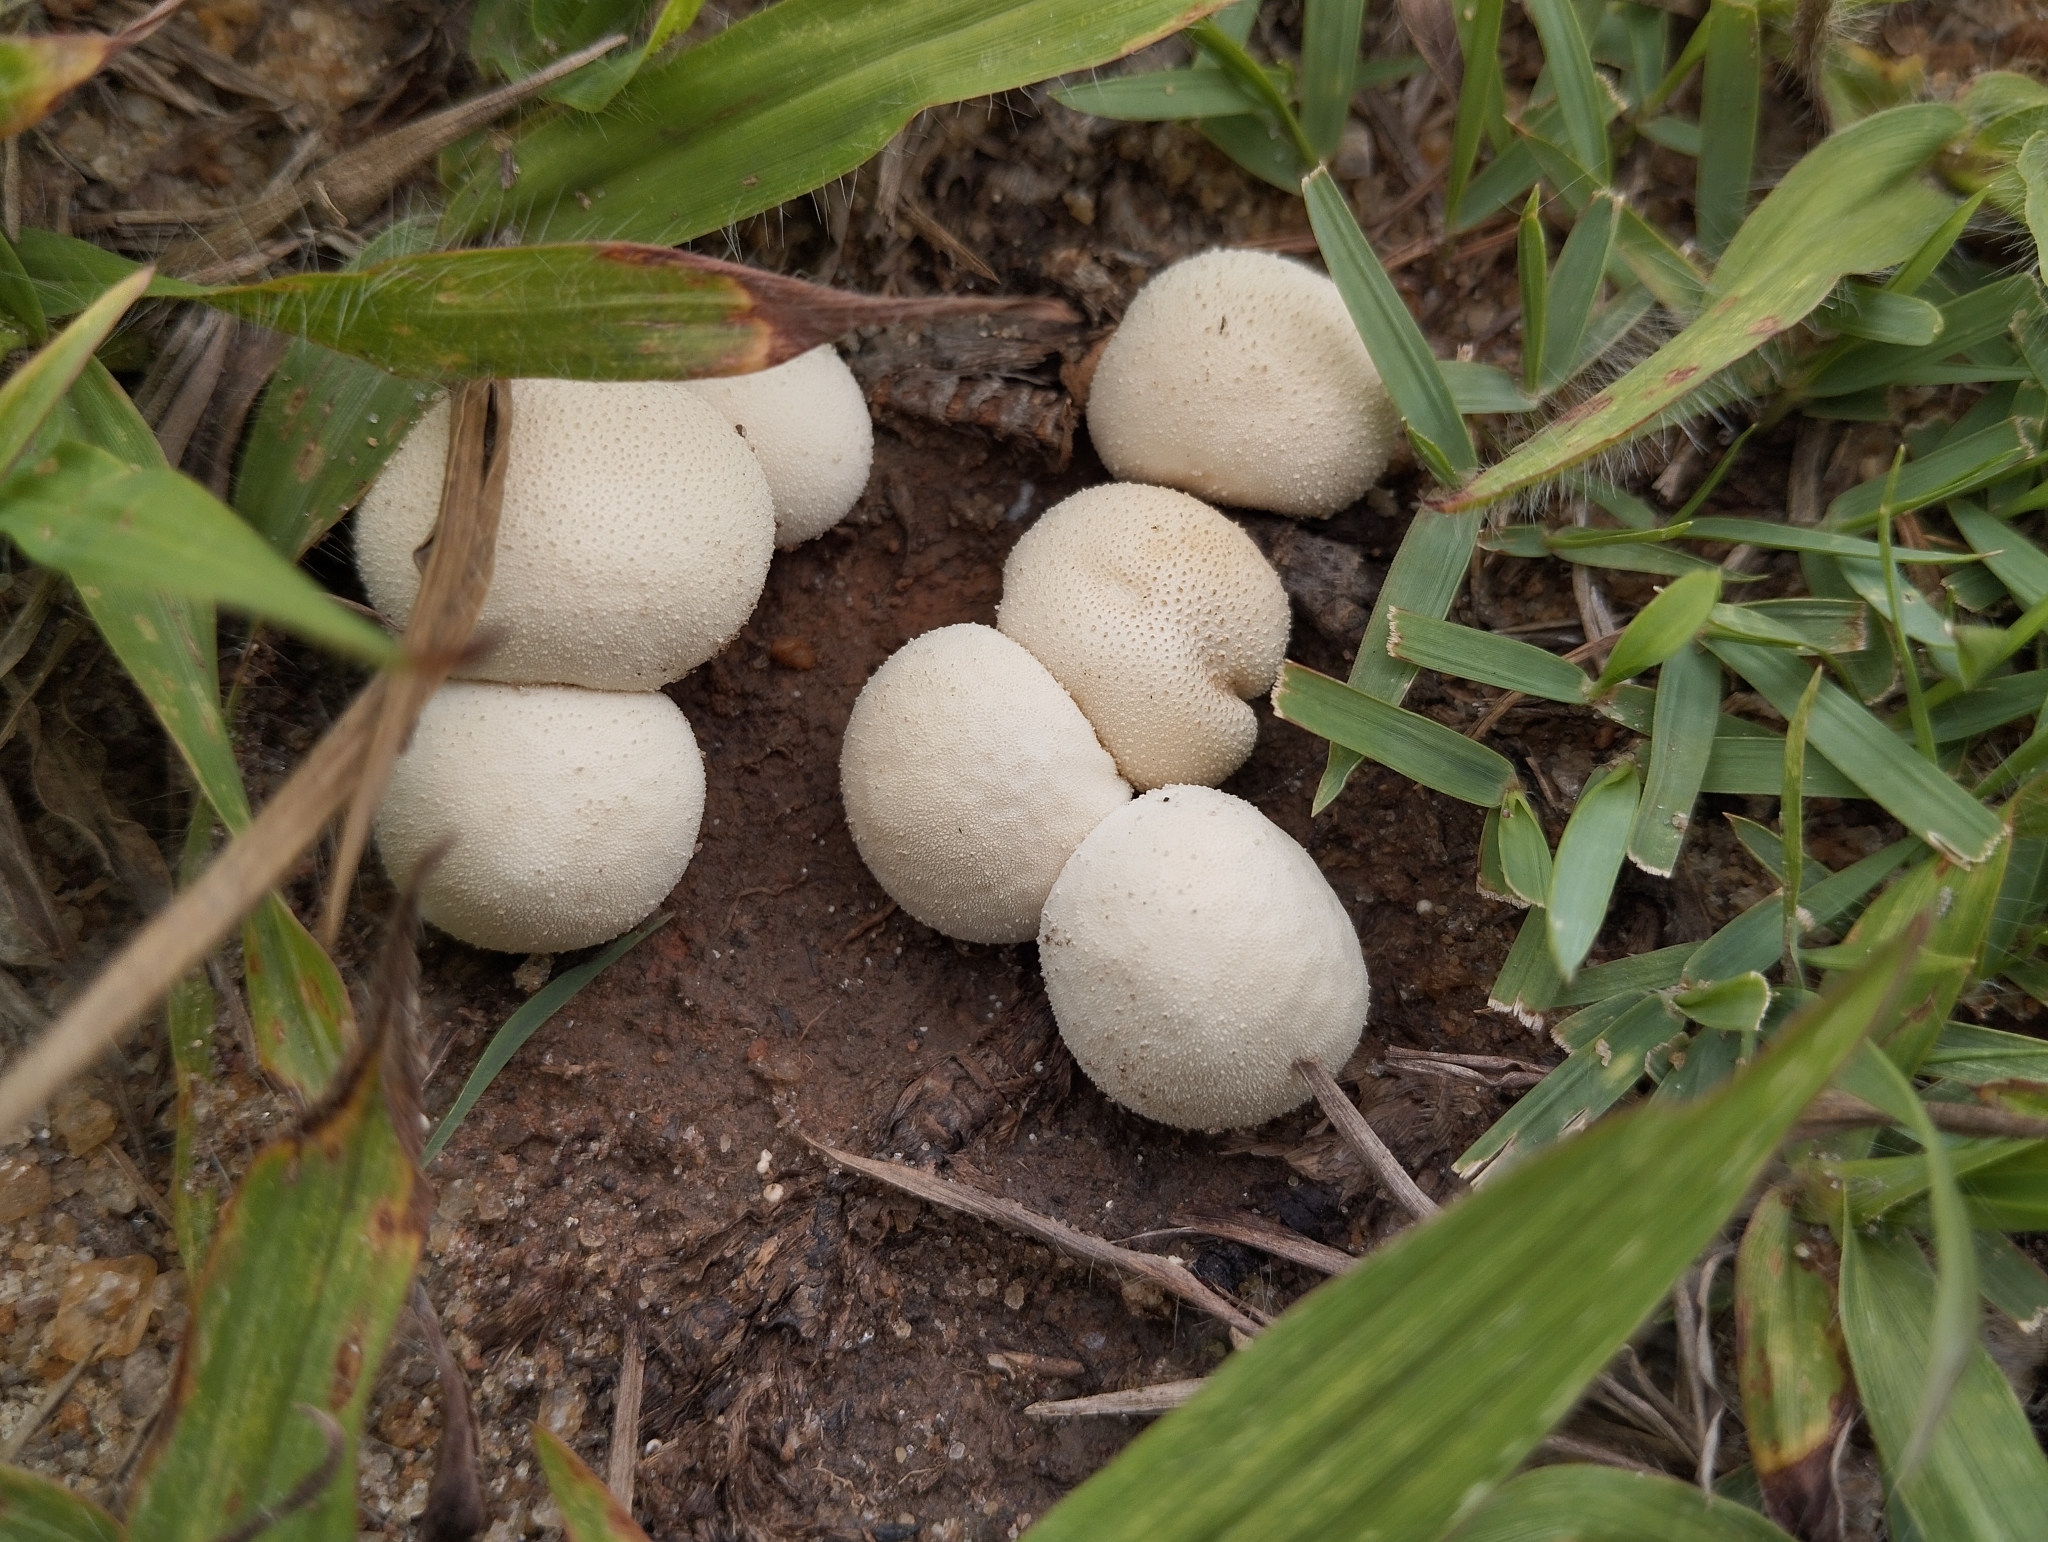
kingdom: Fungi
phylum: Basidiomycota
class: Agaricomycetes
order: Agaricales
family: Lycoperdaceae
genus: Lycoperdon
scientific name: Lycoperdon pratense
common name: Meadow puffball
